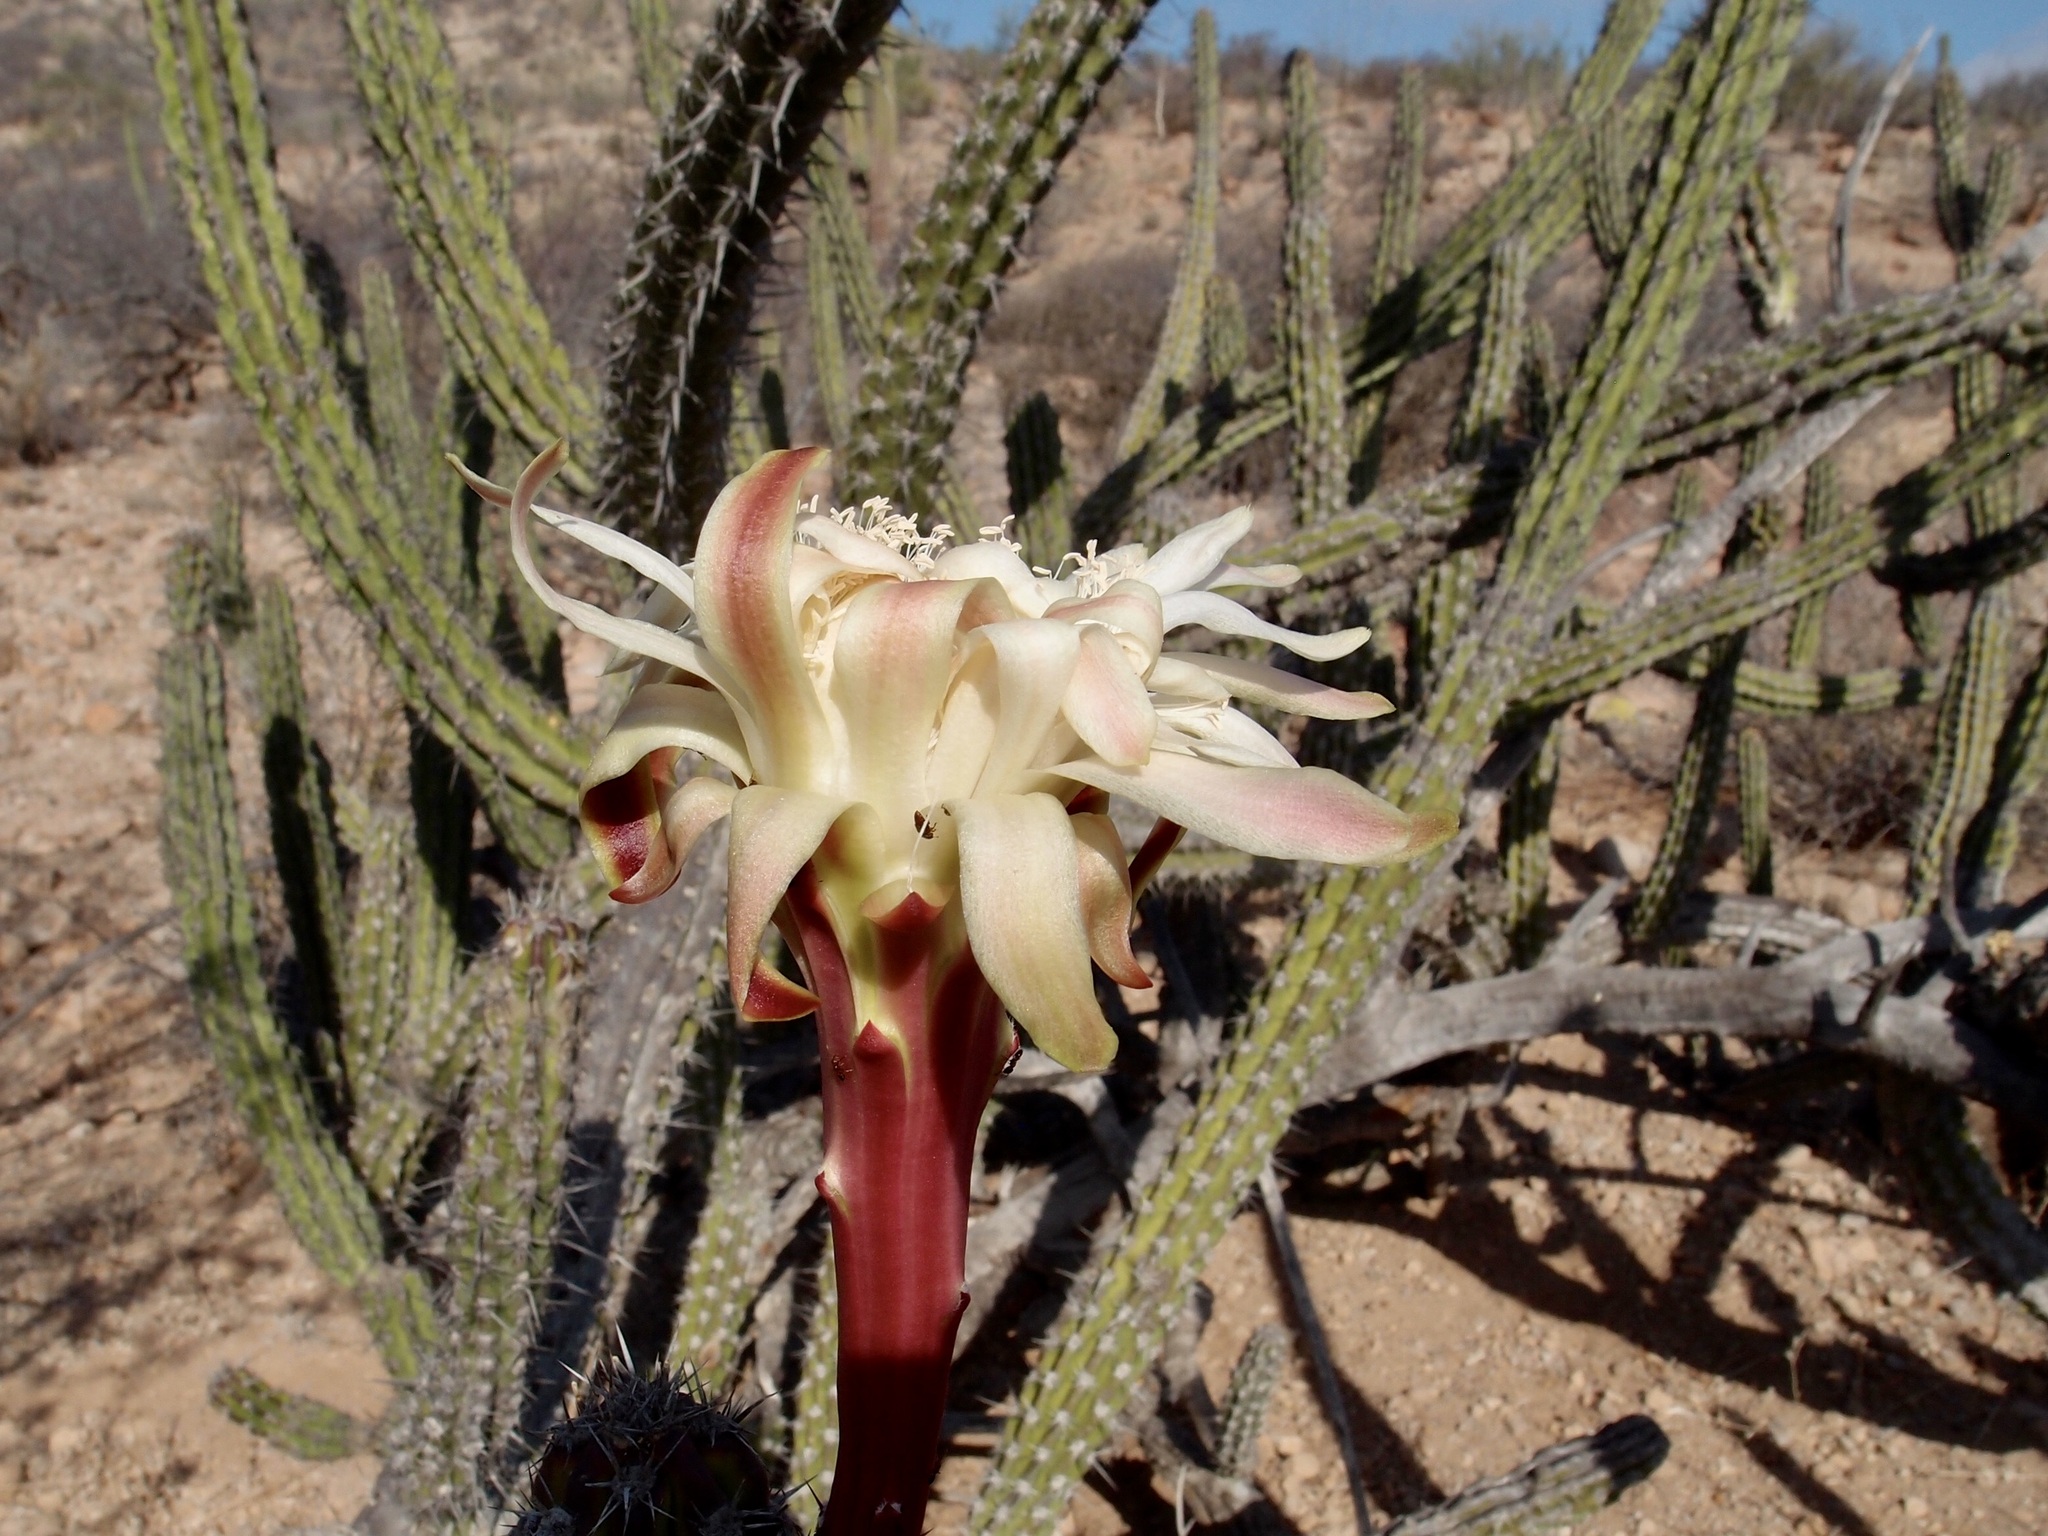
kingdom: Plantae
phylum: Tracheophyta
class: Magnoliopsida
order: Caryophyllales
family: Cactaceae
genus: Stenocereus
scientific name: Stenocereus gummosus
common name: Dagger cactus
